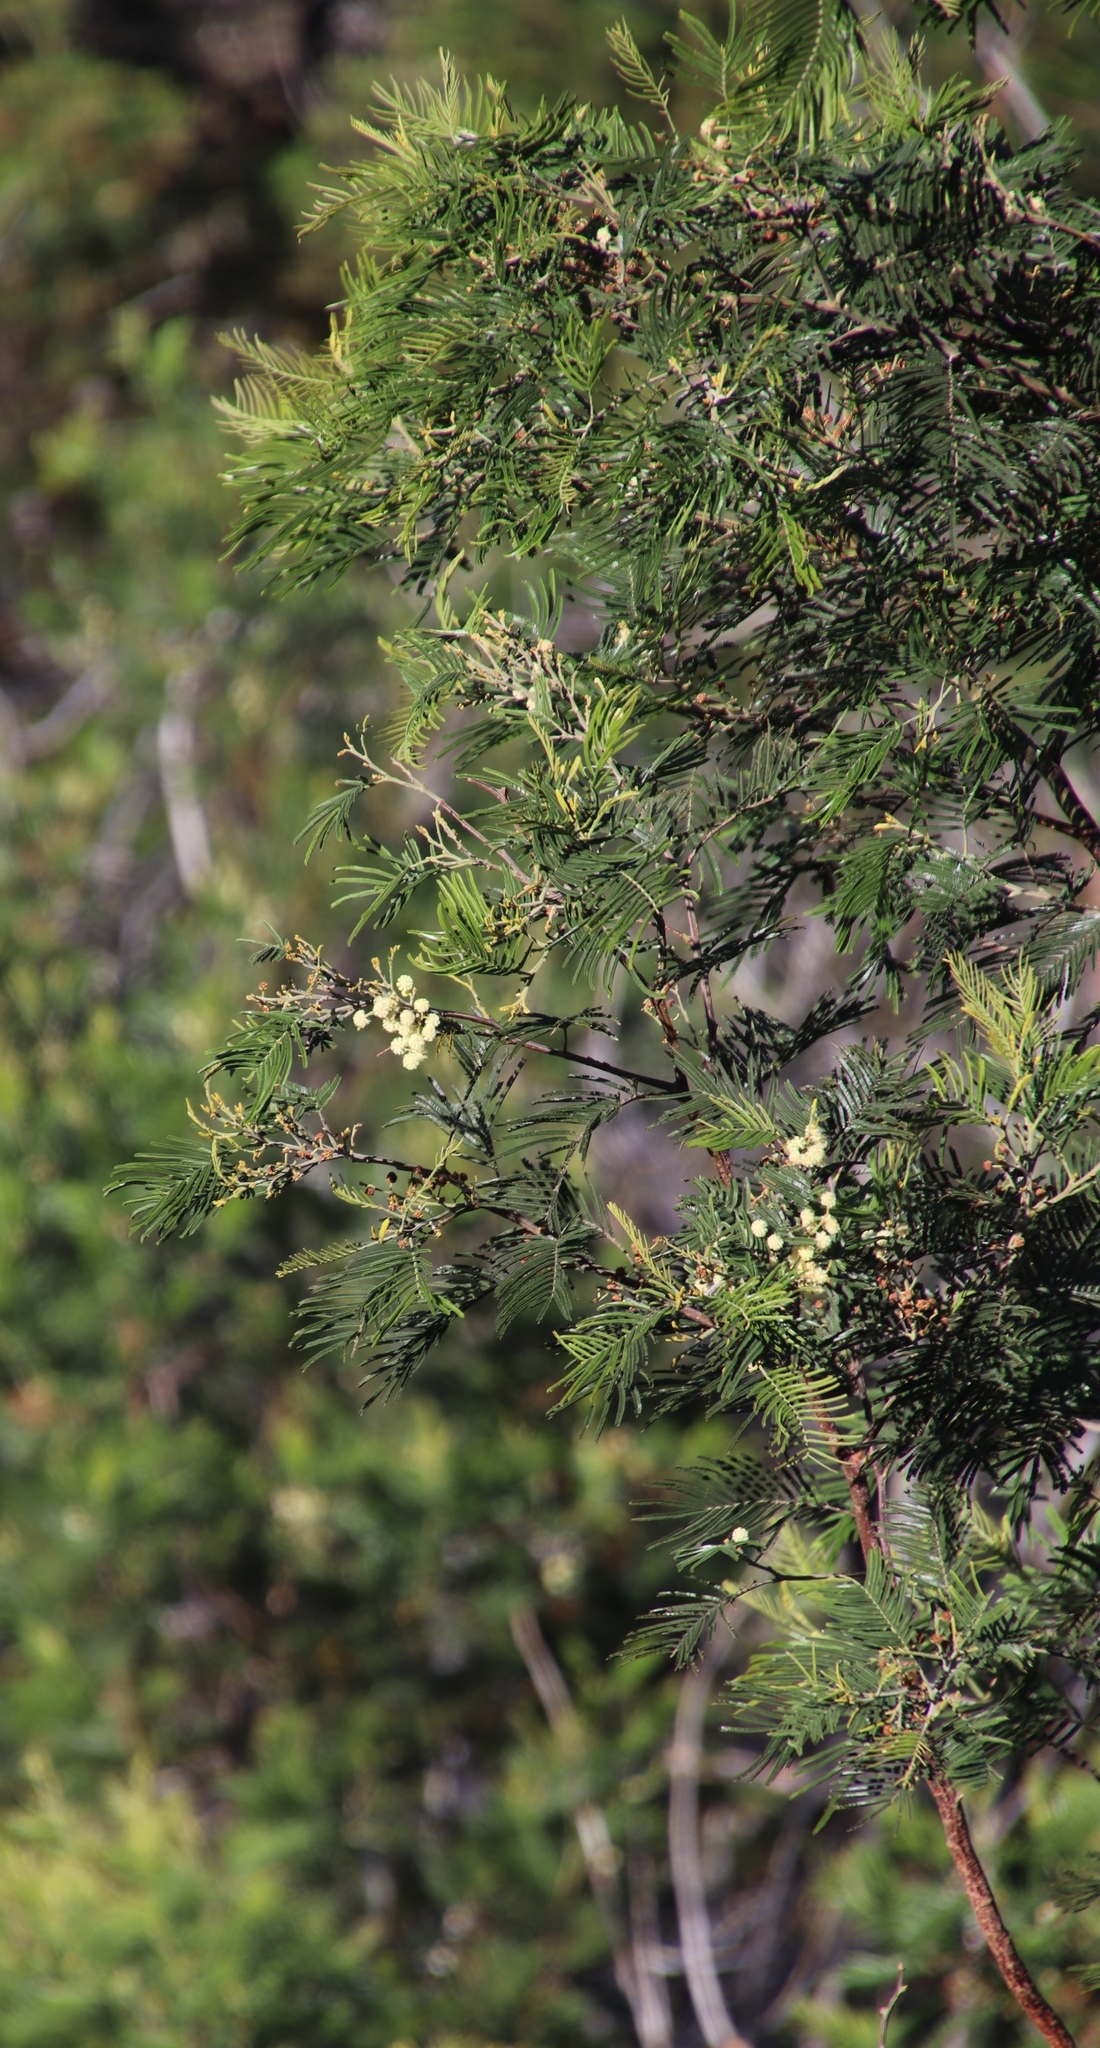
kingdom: Plantae
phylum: Tracheophyta
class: Magnoliopsida
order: Fabales
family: Fabaceae
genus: Acacia
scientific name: Acacia mearnsii
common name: Black wattle
